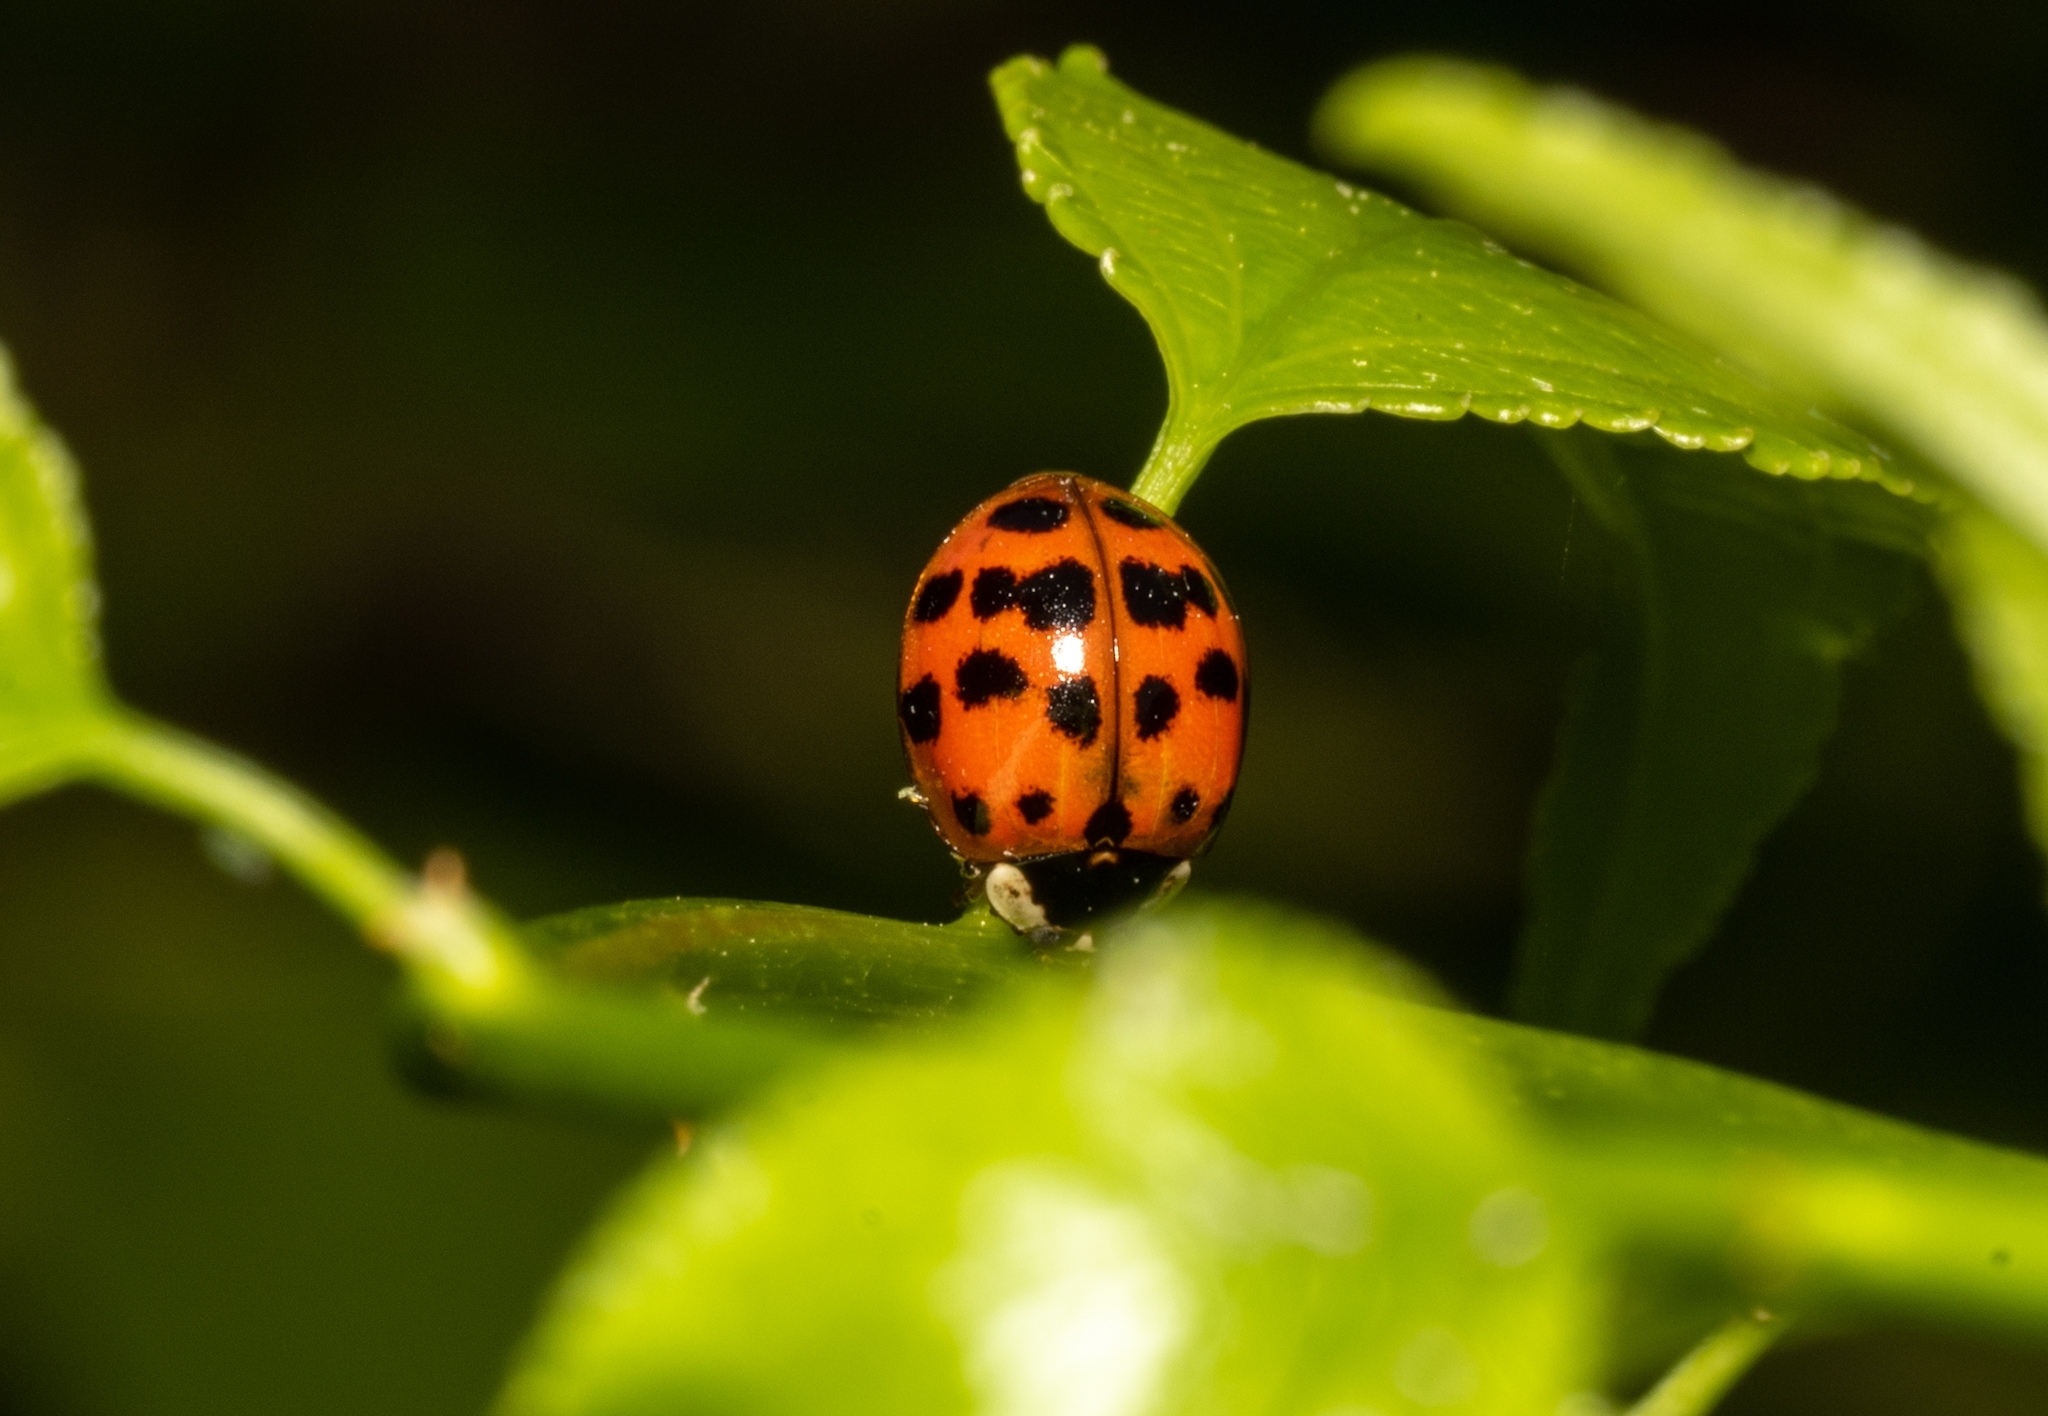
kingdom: Animalia
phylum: Arthropoda
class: Insecta
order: Coleoptera
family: Coccinellidae
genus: Harmonia
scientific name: Harmonia axyridis
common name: Harlequin ladybird
